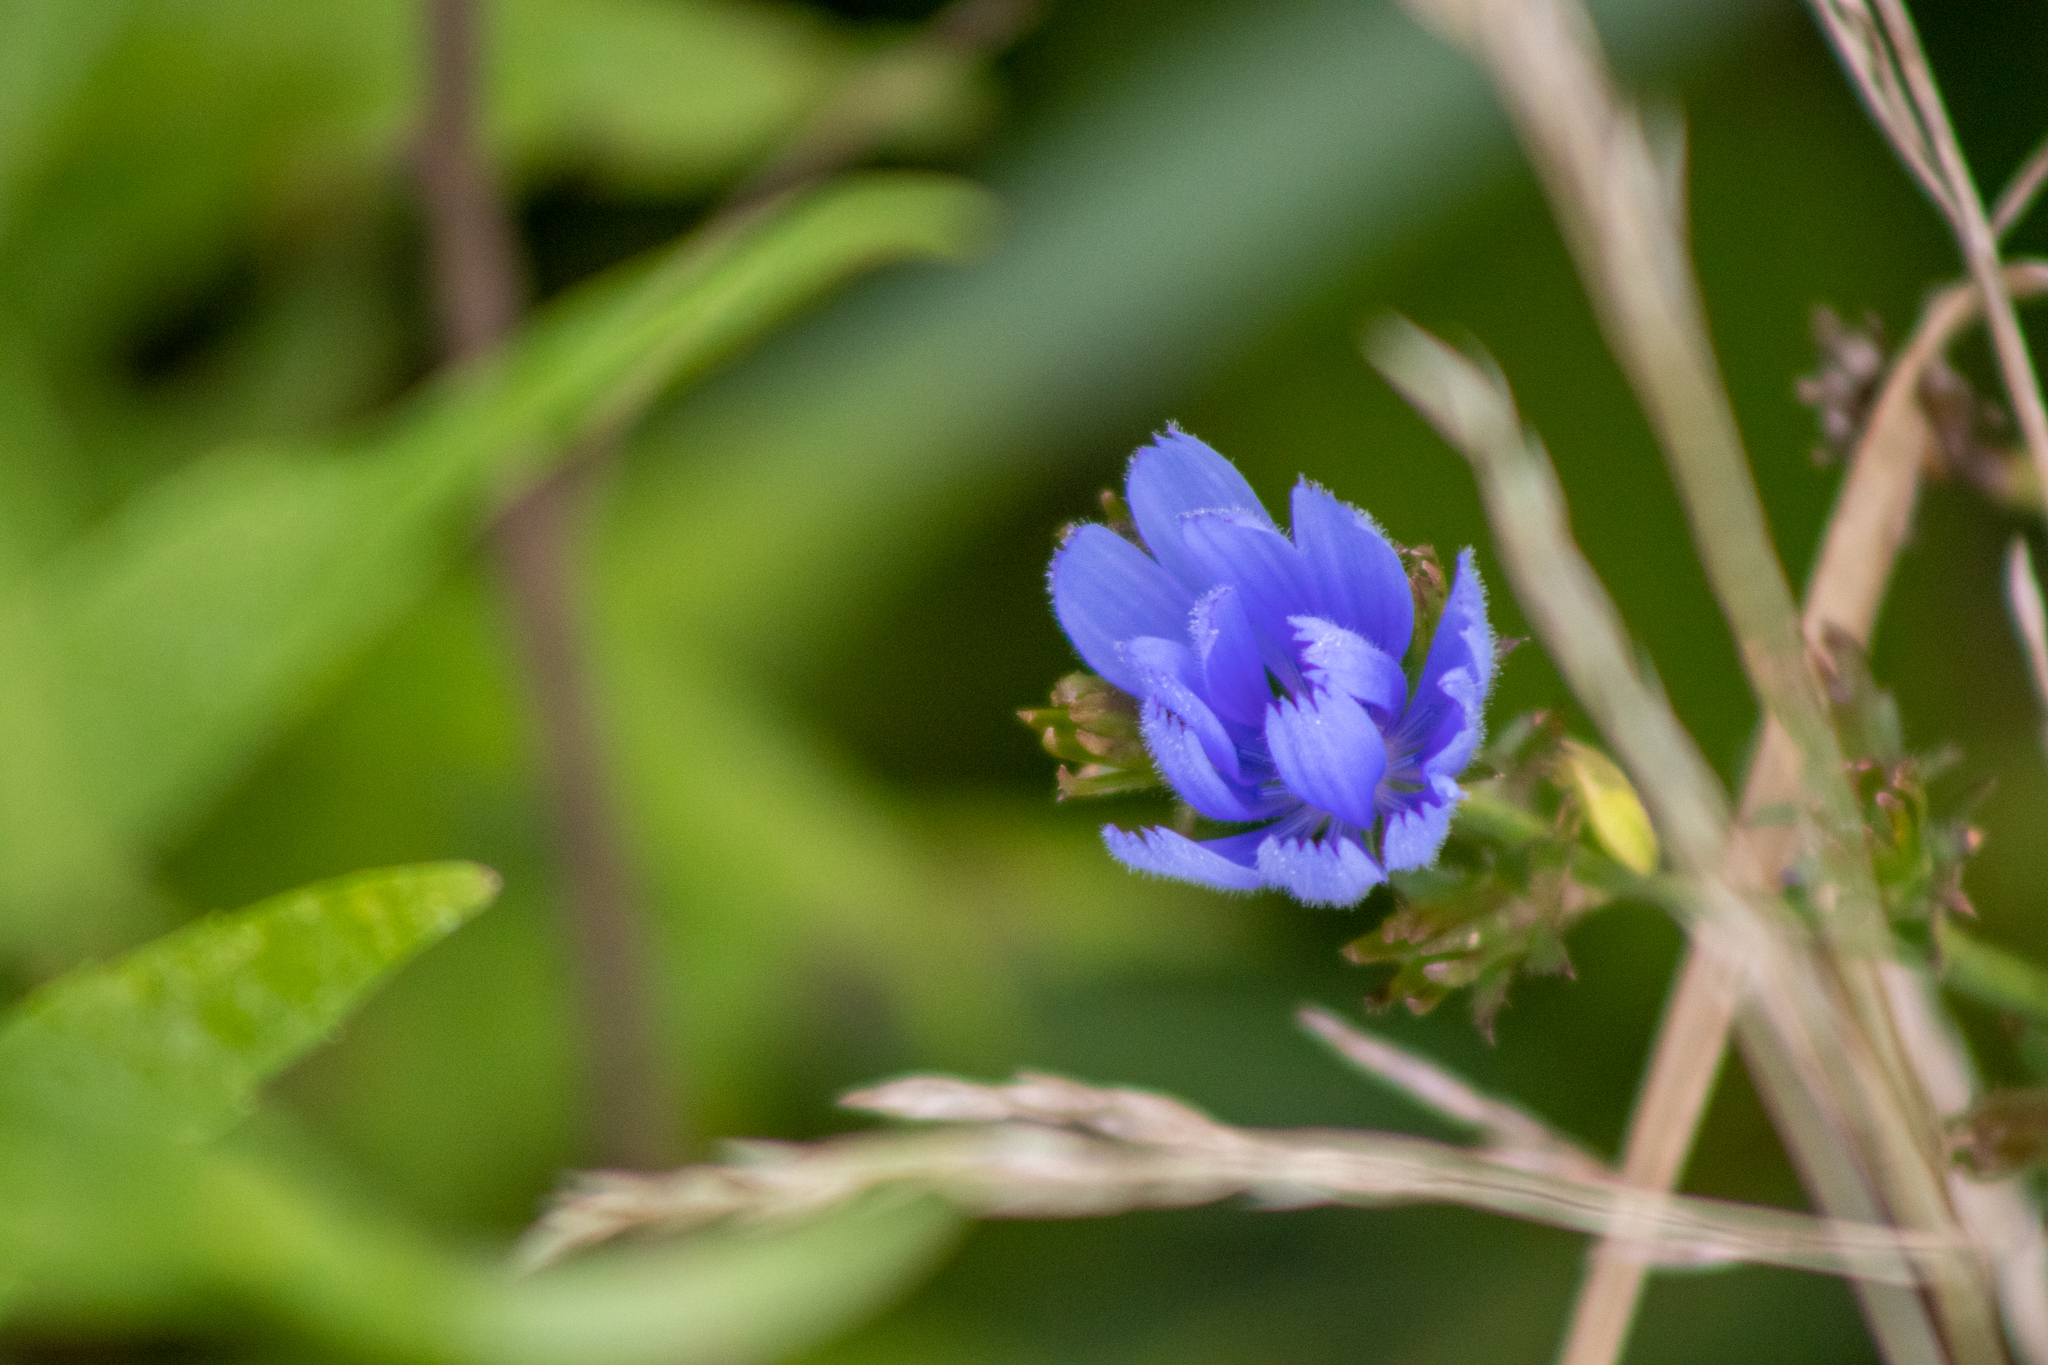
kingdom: Plantae
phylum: Tracheophyta
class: Magnoliopsida
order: Asterales
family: Asteraceae
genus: Cichorium
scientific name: Cichorium intybus
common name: Chicory
